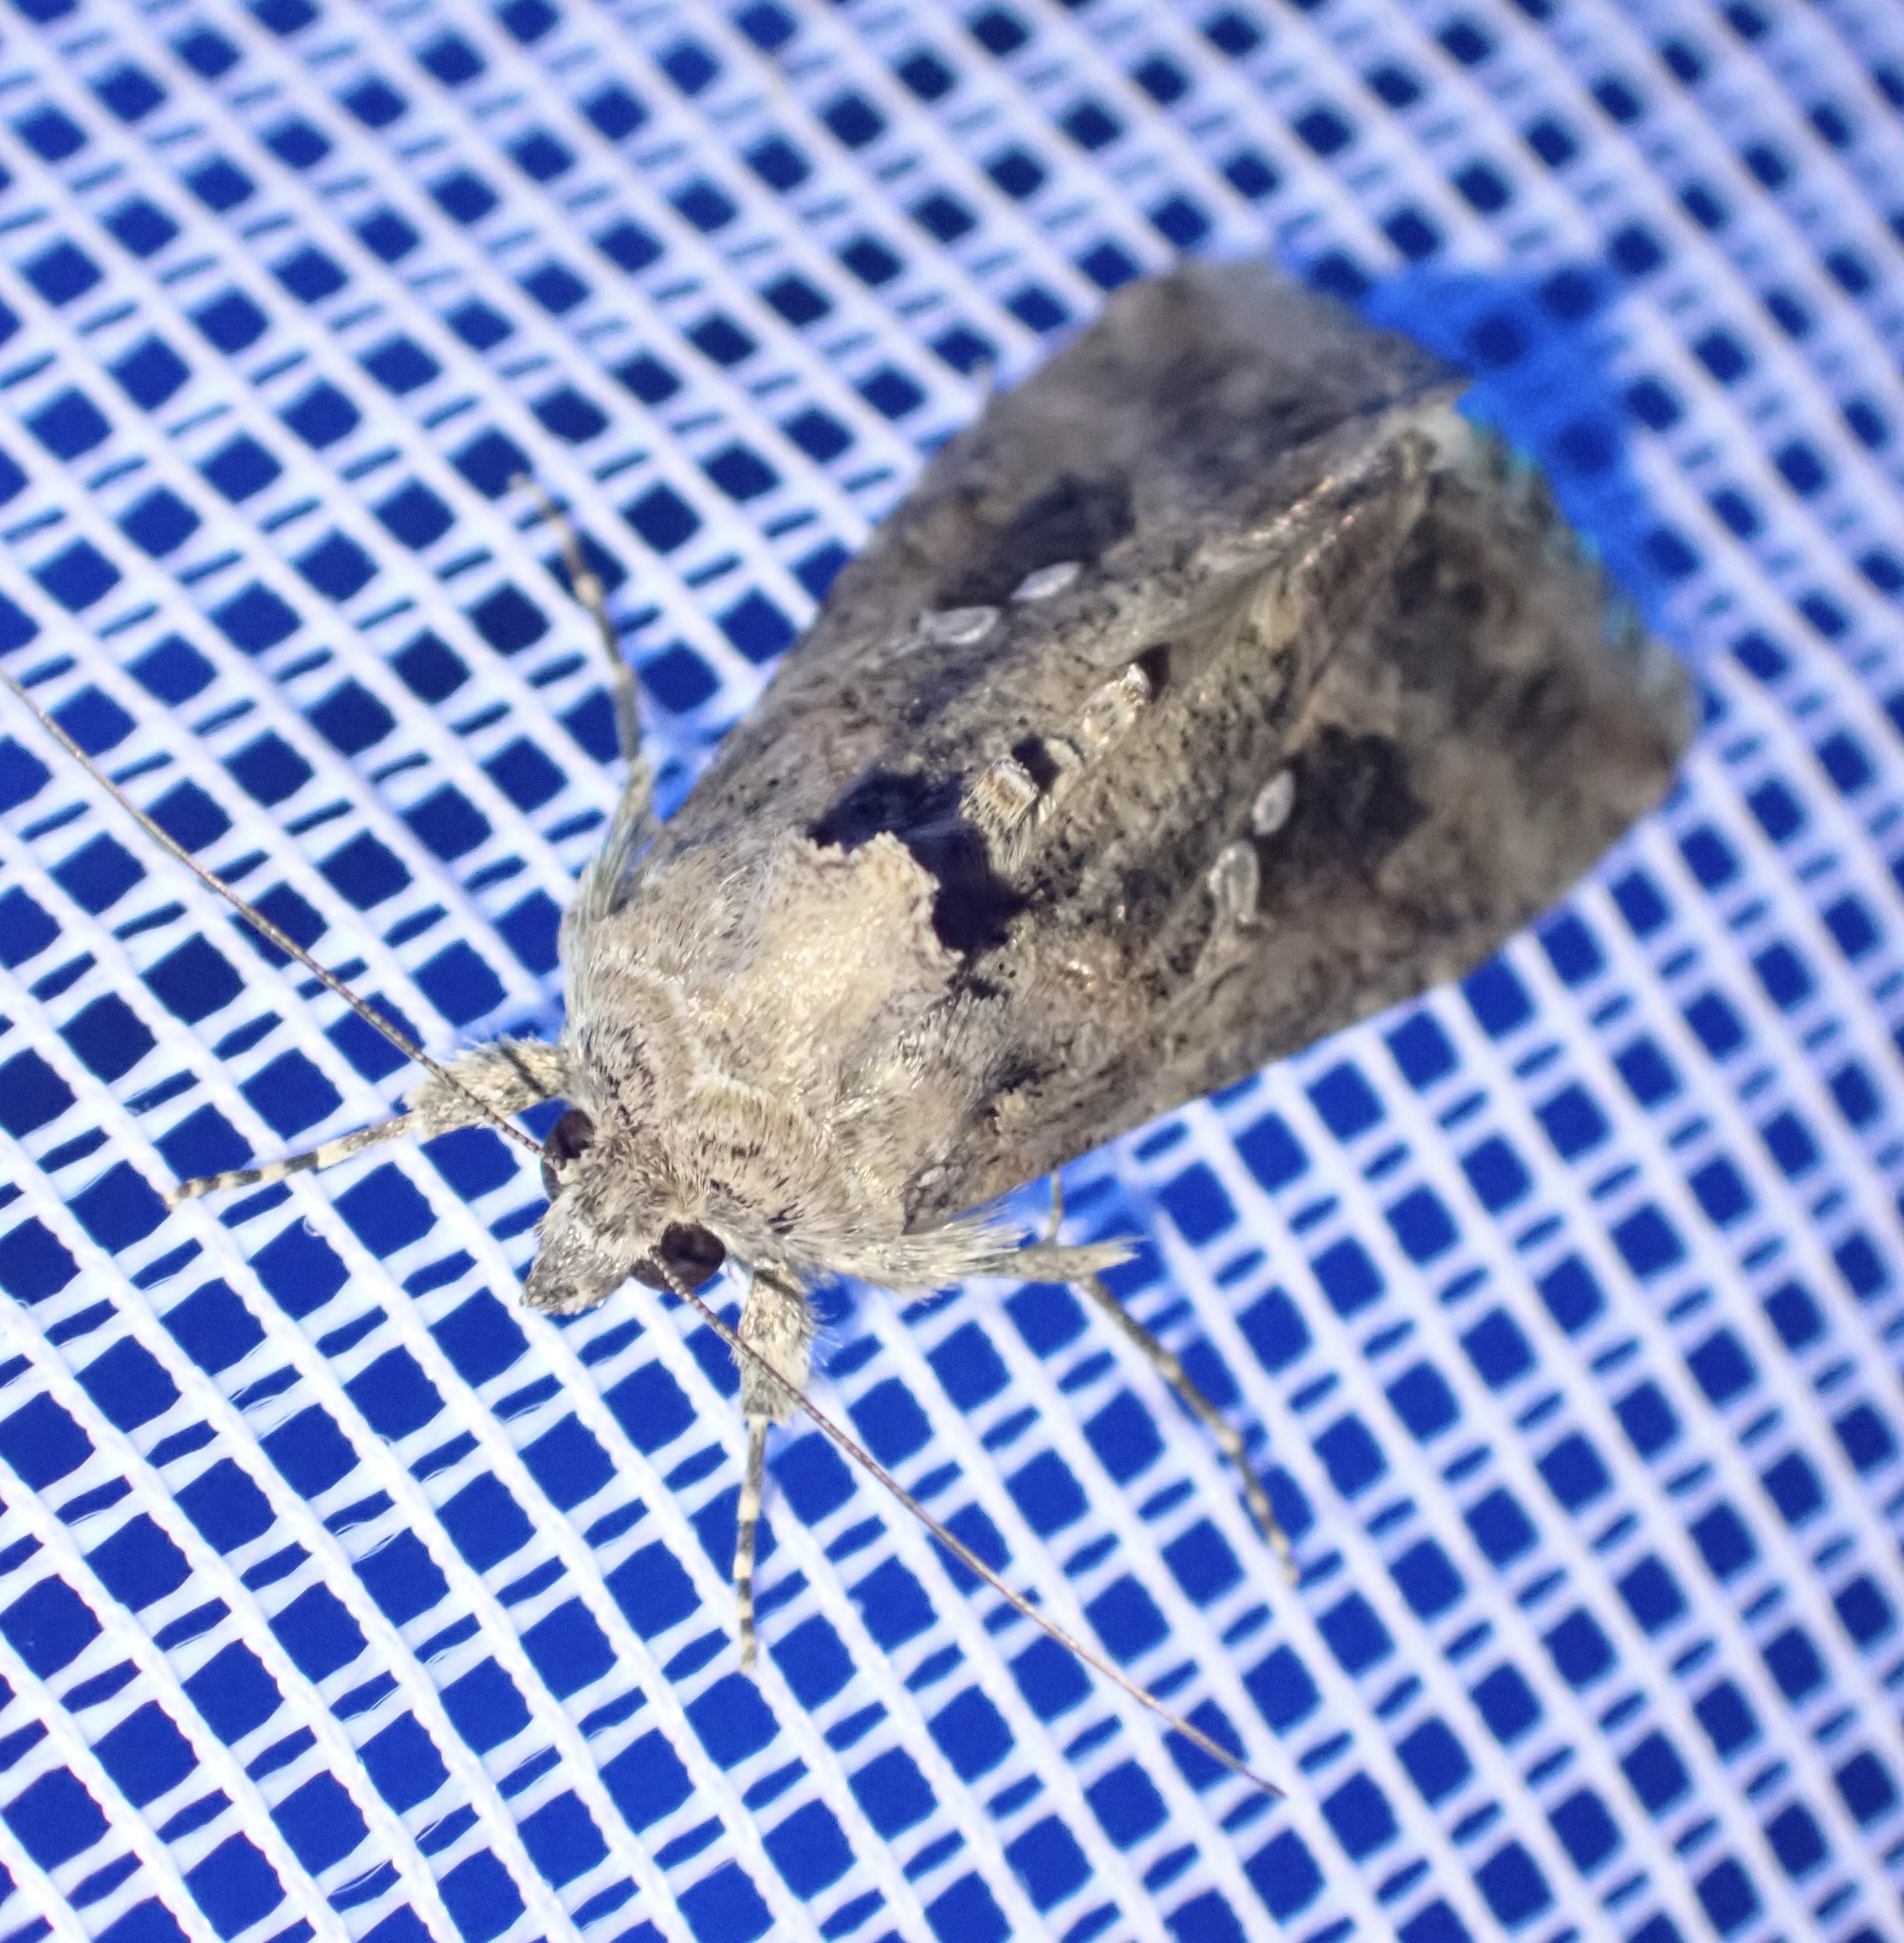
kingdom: Animalia
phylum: Arthropoda
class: Insecta
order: Lepidoptera
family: Noctuidae
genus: Trichoplusia
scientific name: Trichoplusia ni
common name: Ni moth
